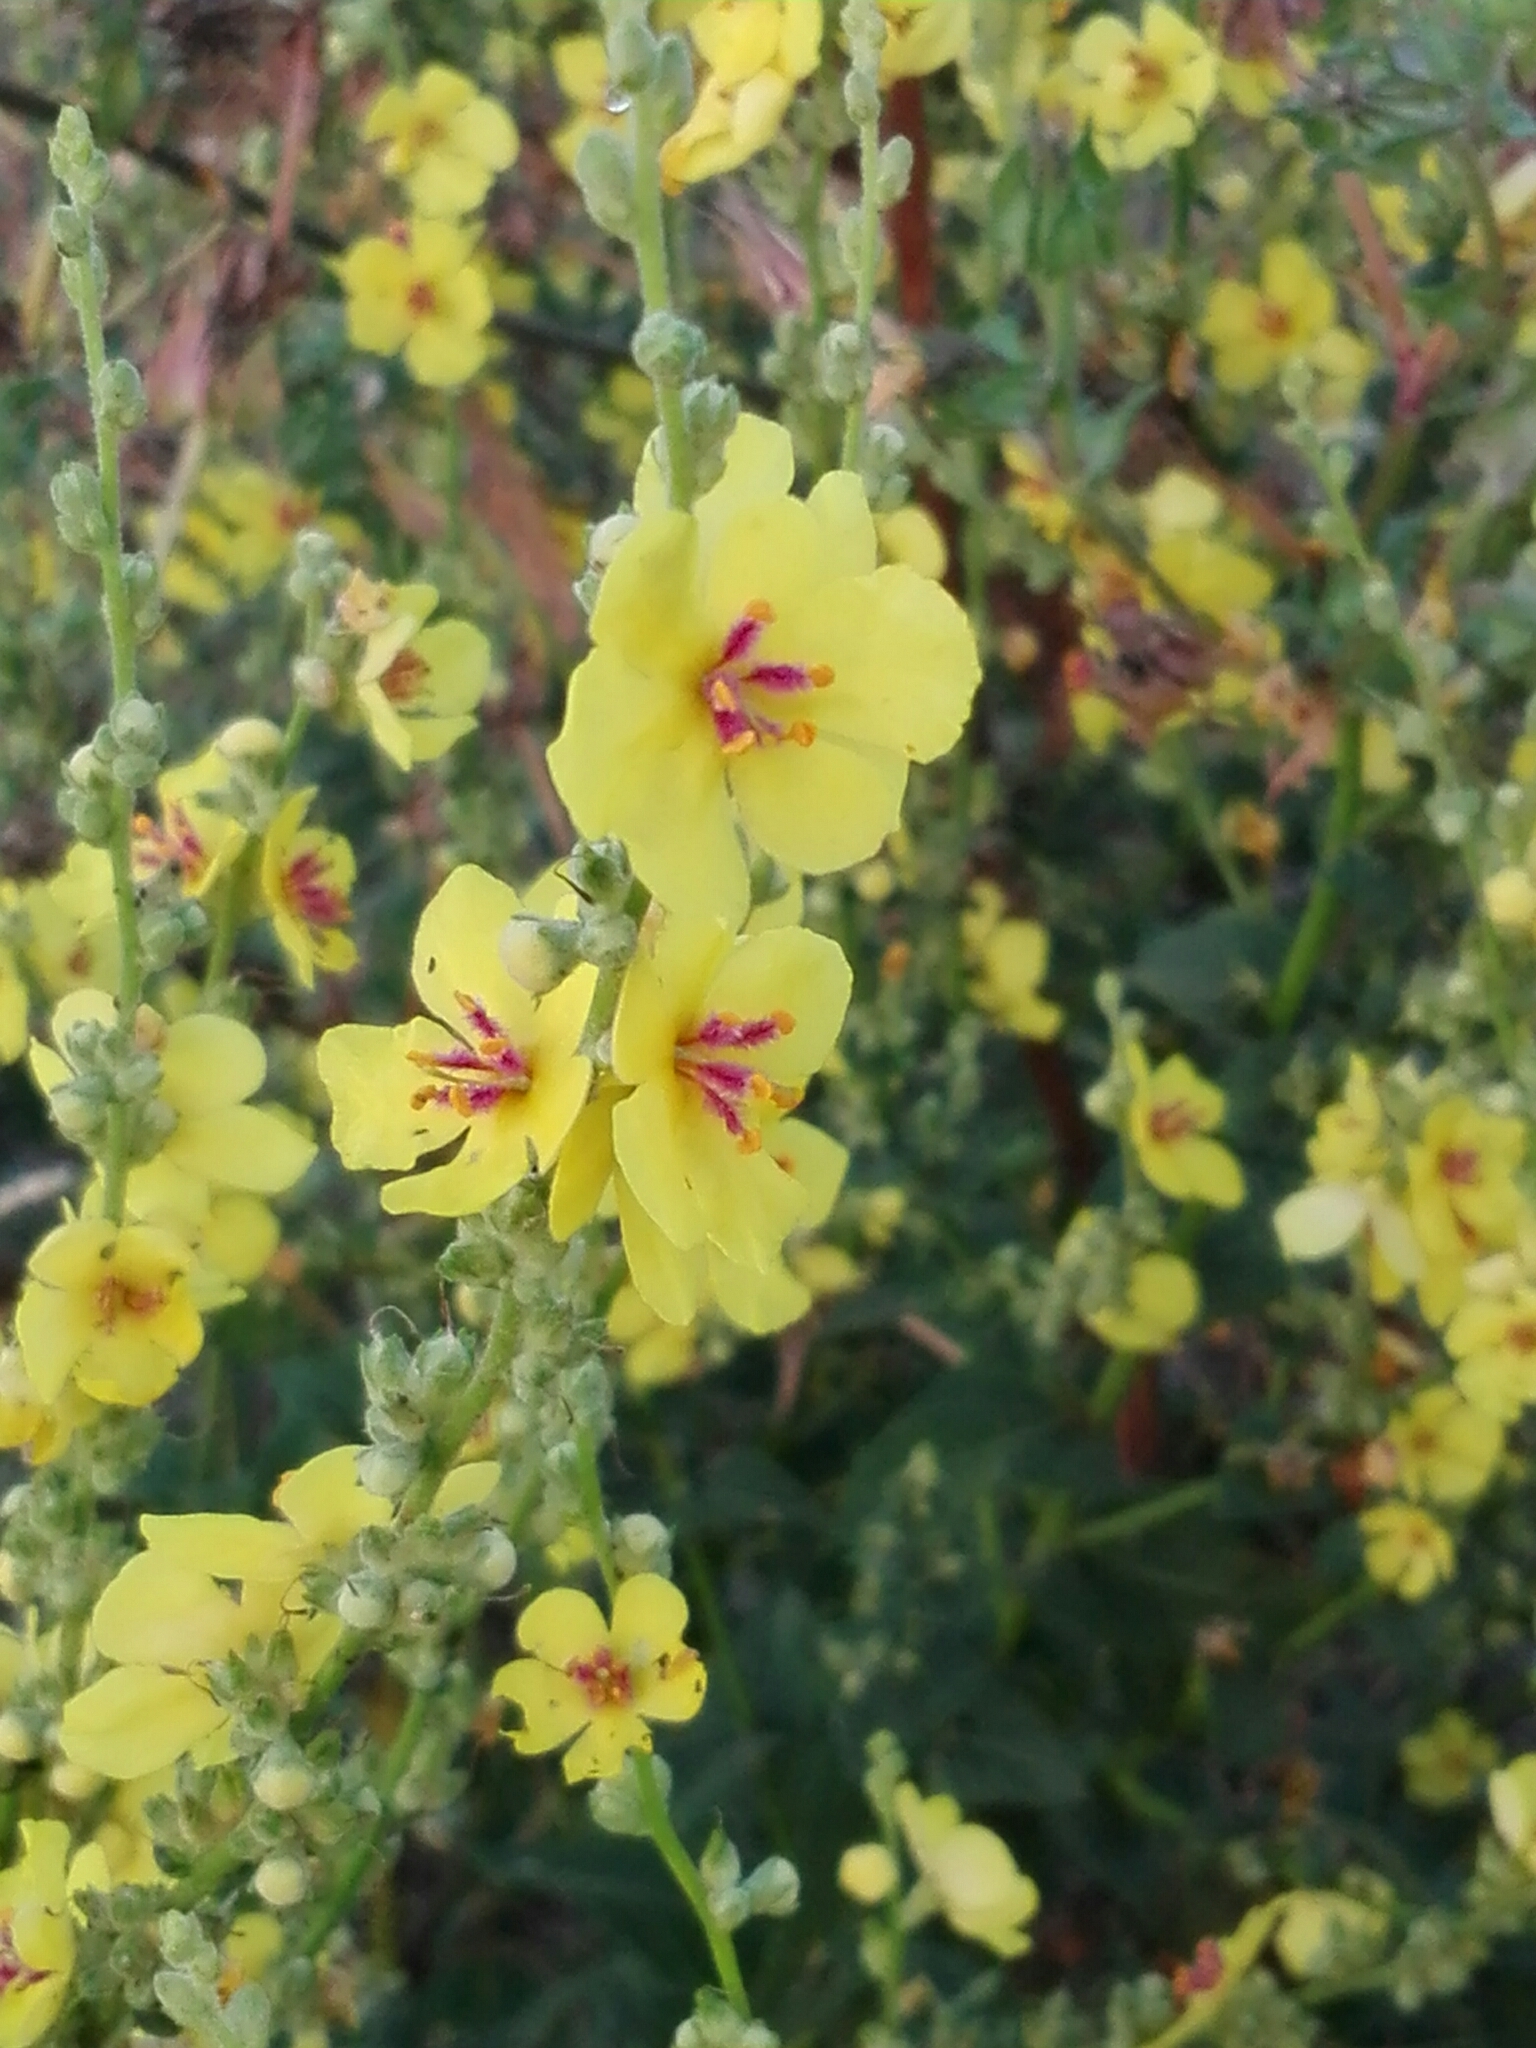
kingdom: Plantae
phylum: Tracheophyta
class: Magnoliopsida
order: Lamiales
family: Scrophulariaceae
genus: Verbascum
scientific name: Verbascum sinuatum
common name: Wavyleaf mullein
